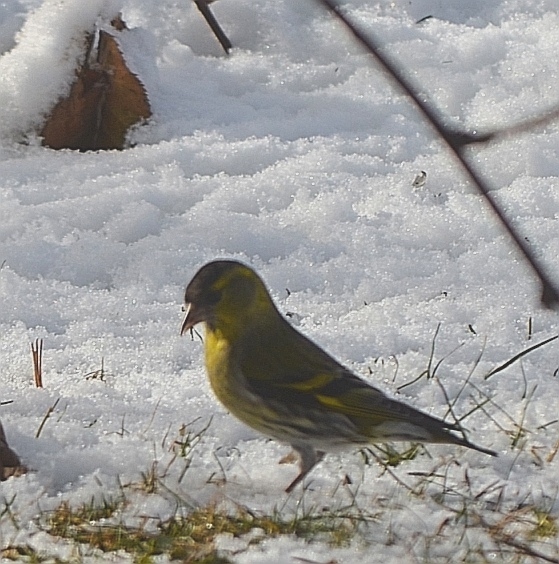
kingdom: Animalia
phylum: Chordata
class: Aves
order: Passeriformes
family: Fringillidae
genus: Spinus
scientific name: Spinus spinus
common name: Eurasian siskin
